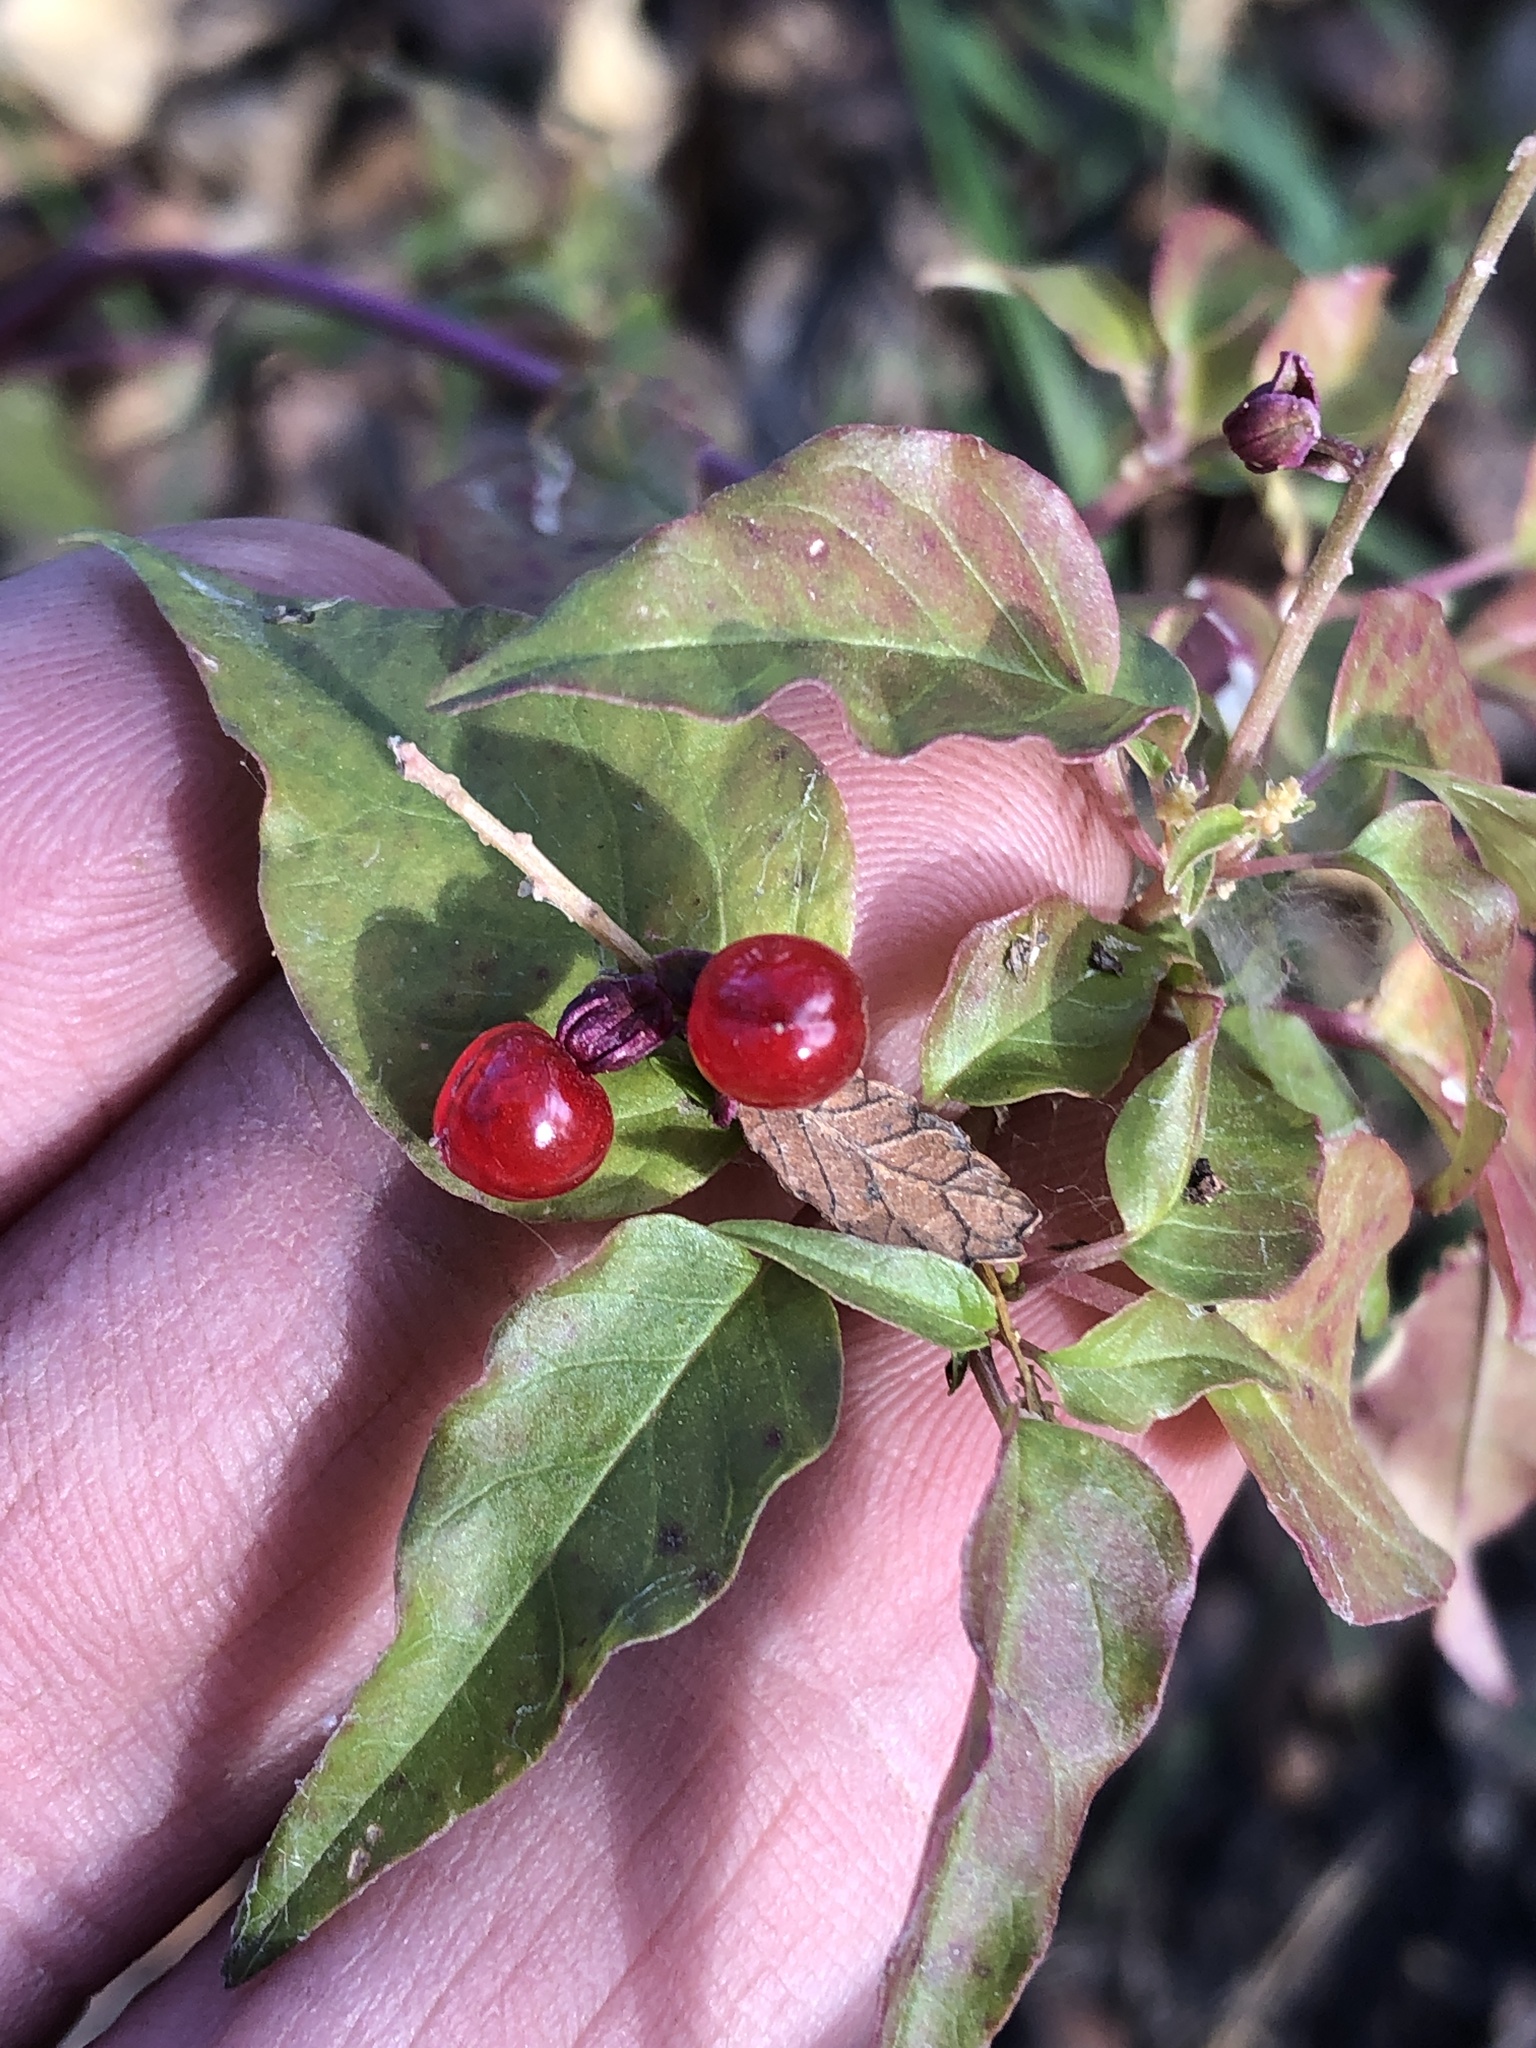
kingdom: Plantae
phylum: Tracheophyta
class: Magnoliopsida
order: Caryophyllales
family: Phytolaccaceae
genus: Rivina
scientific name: Rivina humilis
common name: Rougeplant
